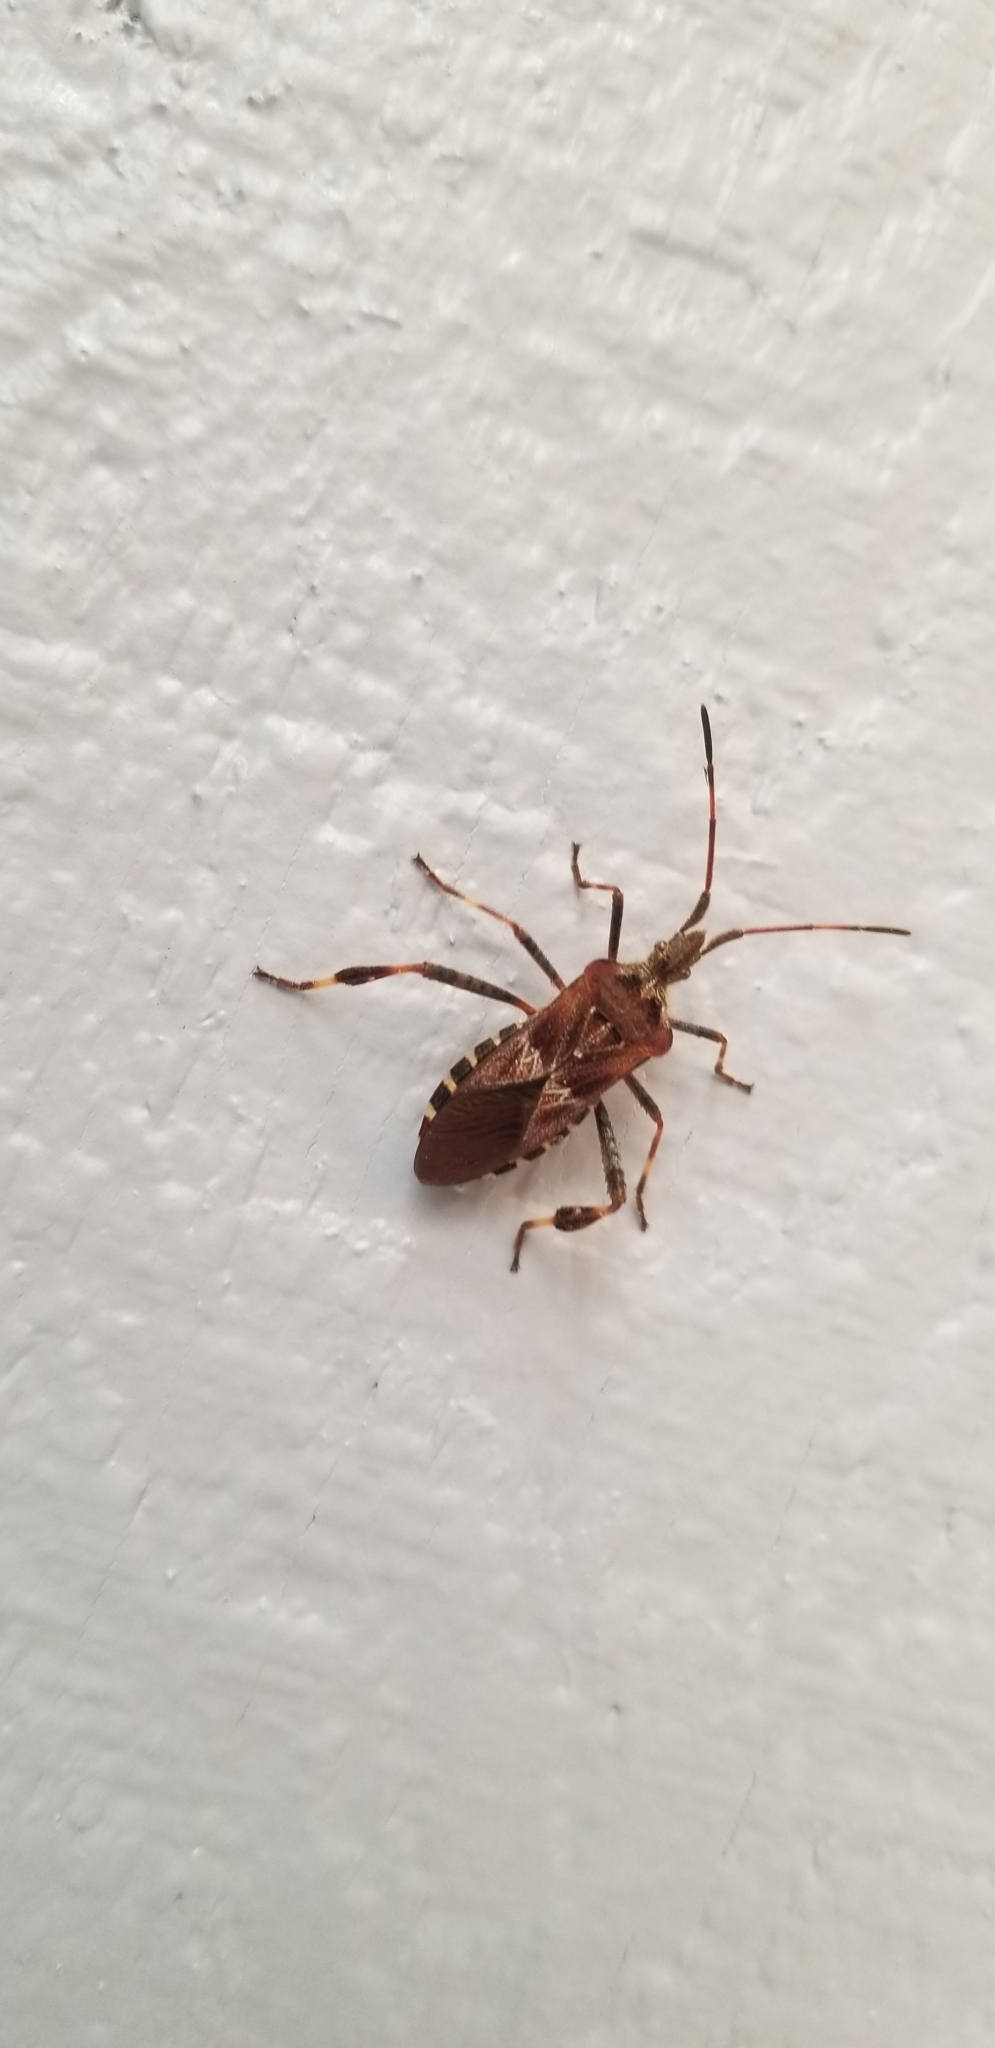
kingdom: Animalia
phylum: Arthropoda
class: Insecta
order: Hemiptera
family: Coreidae
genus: Leptoglossus
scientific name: Leptoglossus occidentalis
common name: Western conifer-seed bug
